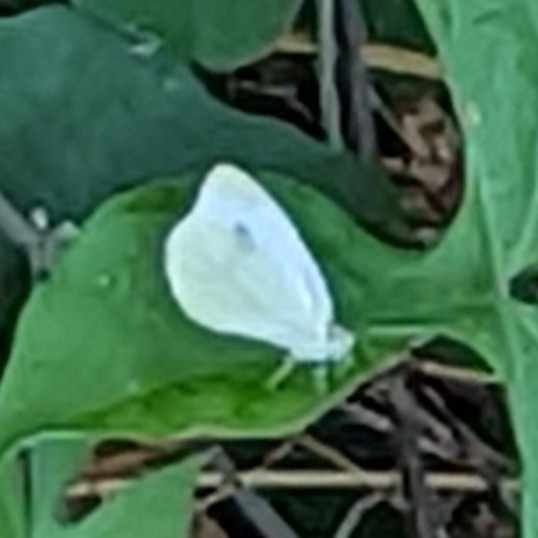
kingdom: Animalia
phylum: Arthropoda
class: Insecta
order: Lepidoptera
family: Pieridae
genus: Pieris
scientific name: Pieris rapae
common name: Small white
